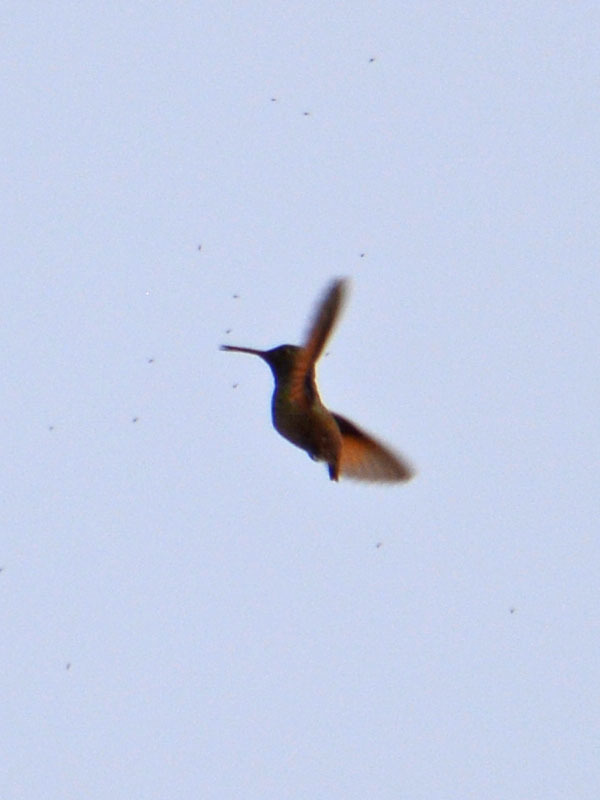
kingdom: Animalia
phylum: Chordata
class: Aves
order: Apodiformes
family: Trochilidae
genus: Saucerottia
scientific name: Saucerottia beryllina
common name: Berylline hummingbird
